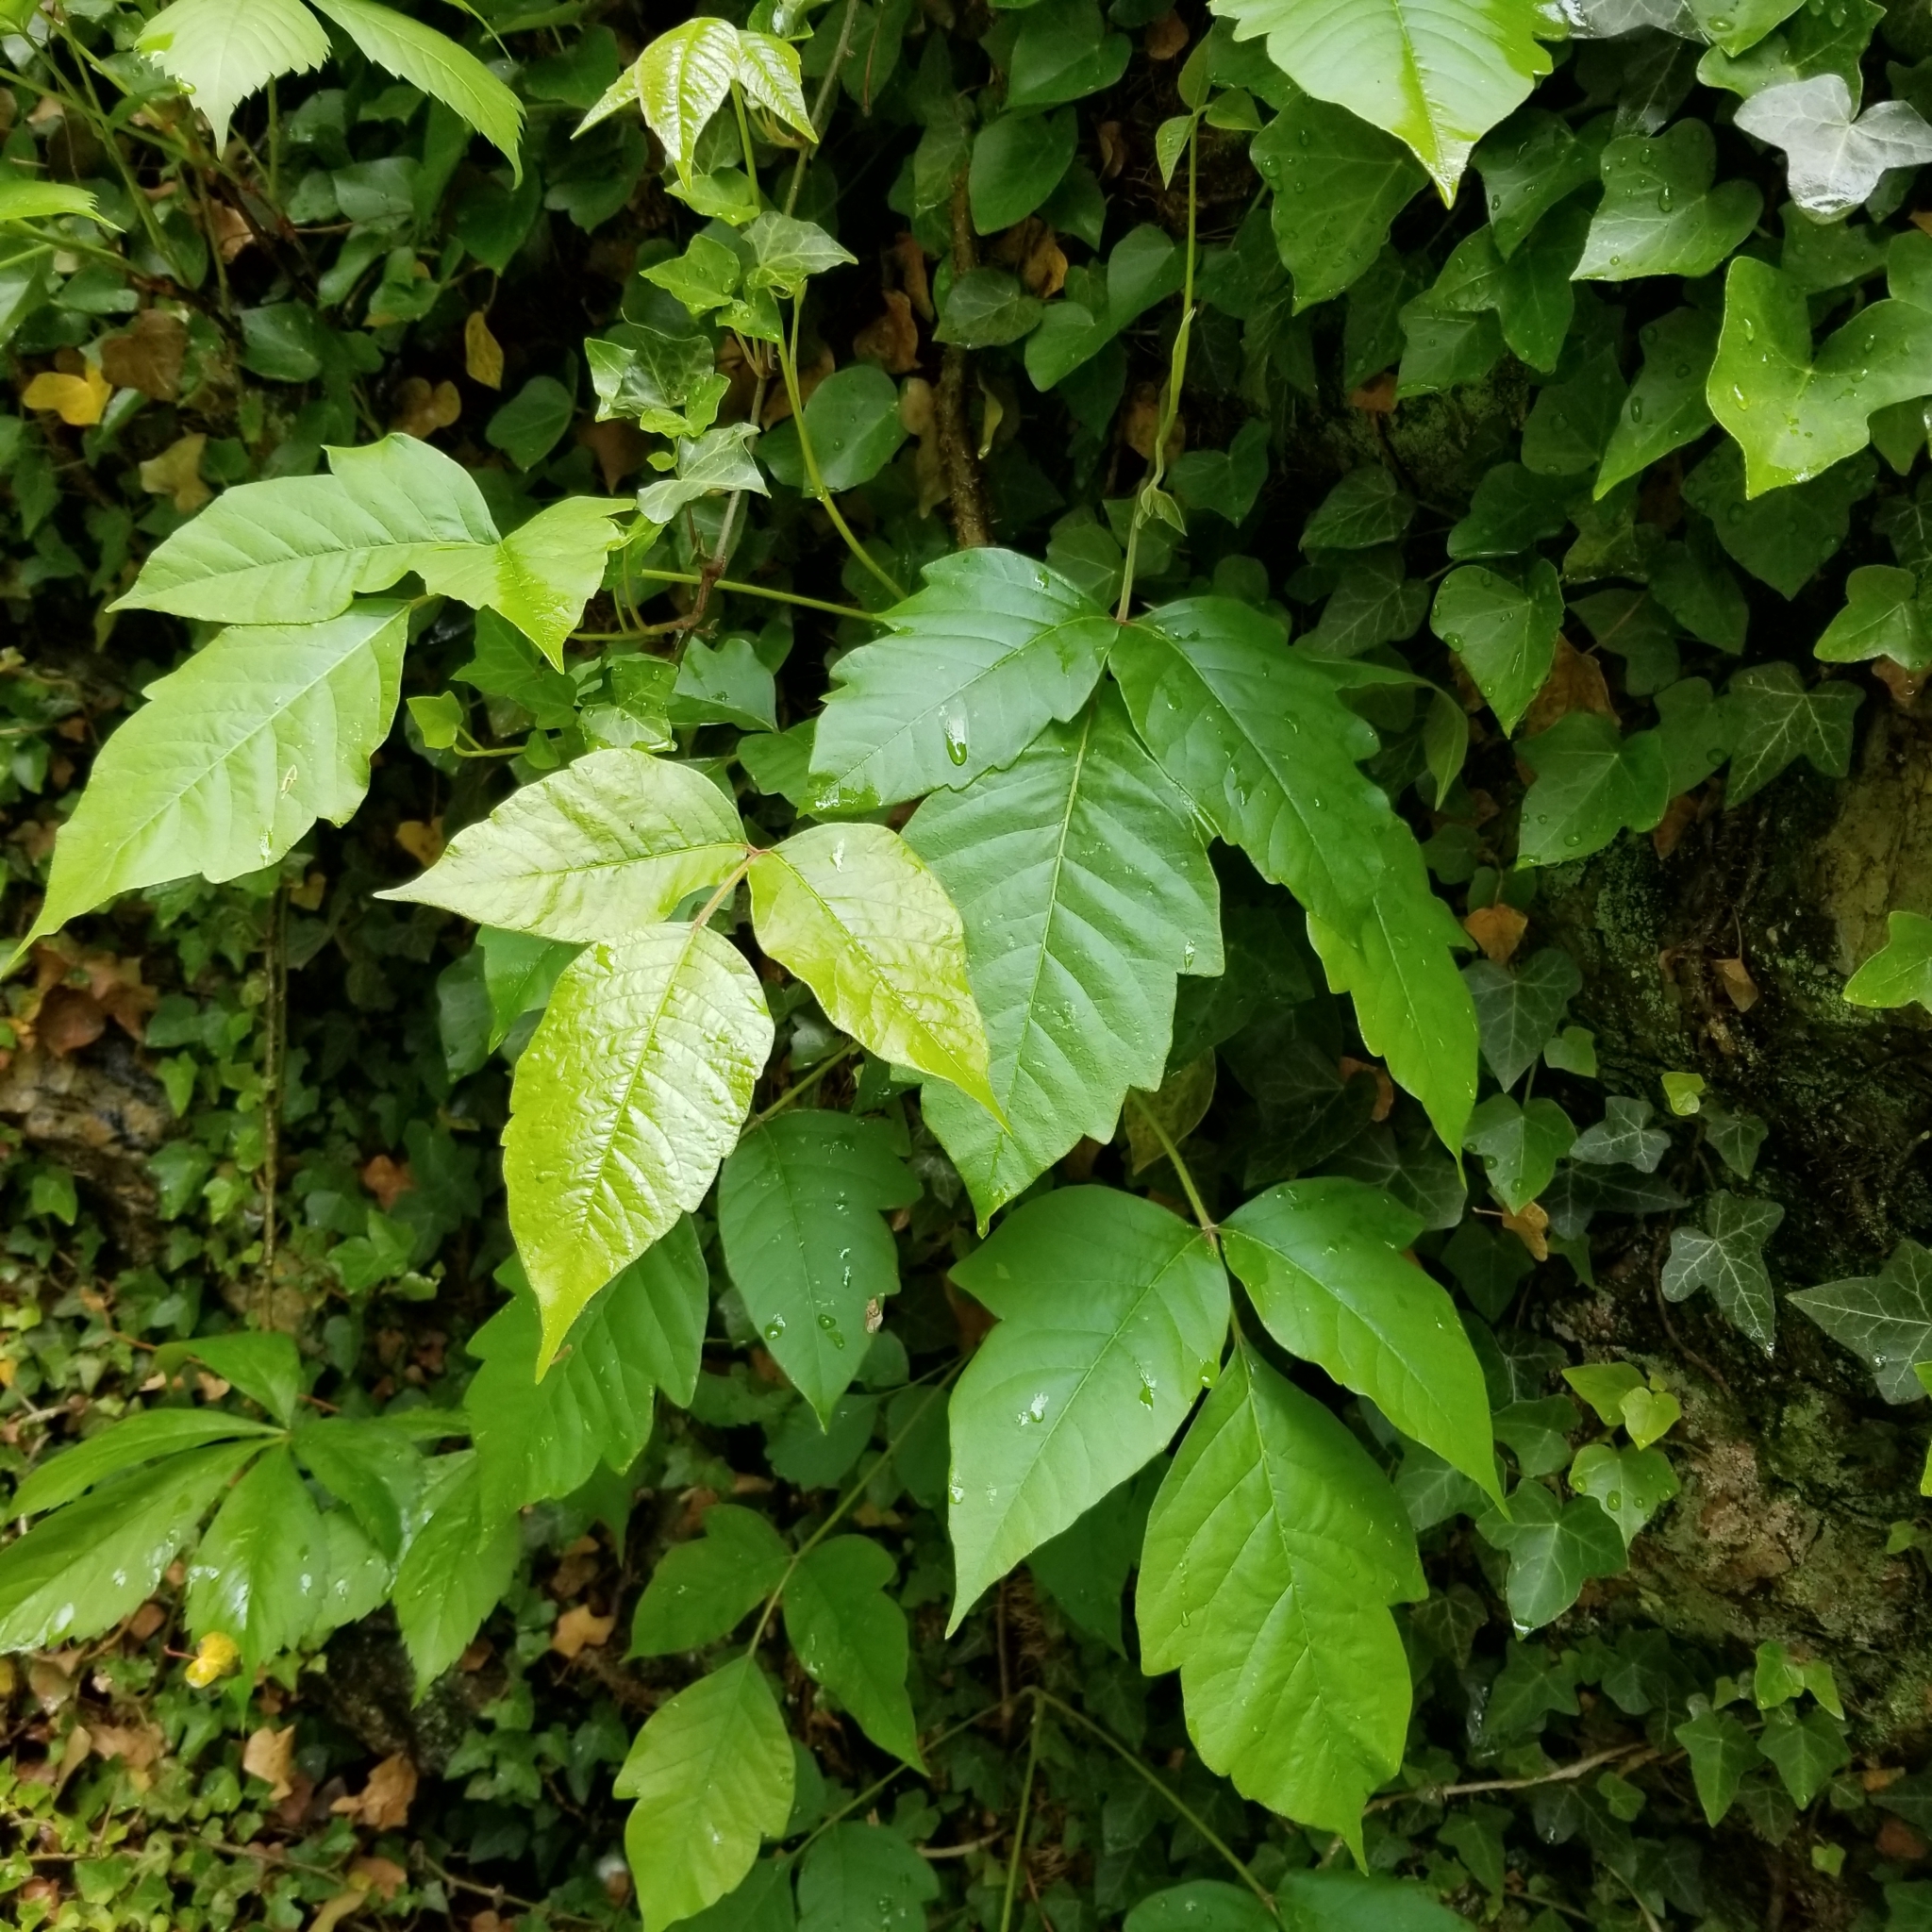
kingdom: Plantae
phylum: Tracheophyta
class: Magnoliopsida
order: Sapindales
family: Anacardiaceae
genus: Toxicodendron
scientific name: Toxicodendron radicans
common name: Poison ivy
